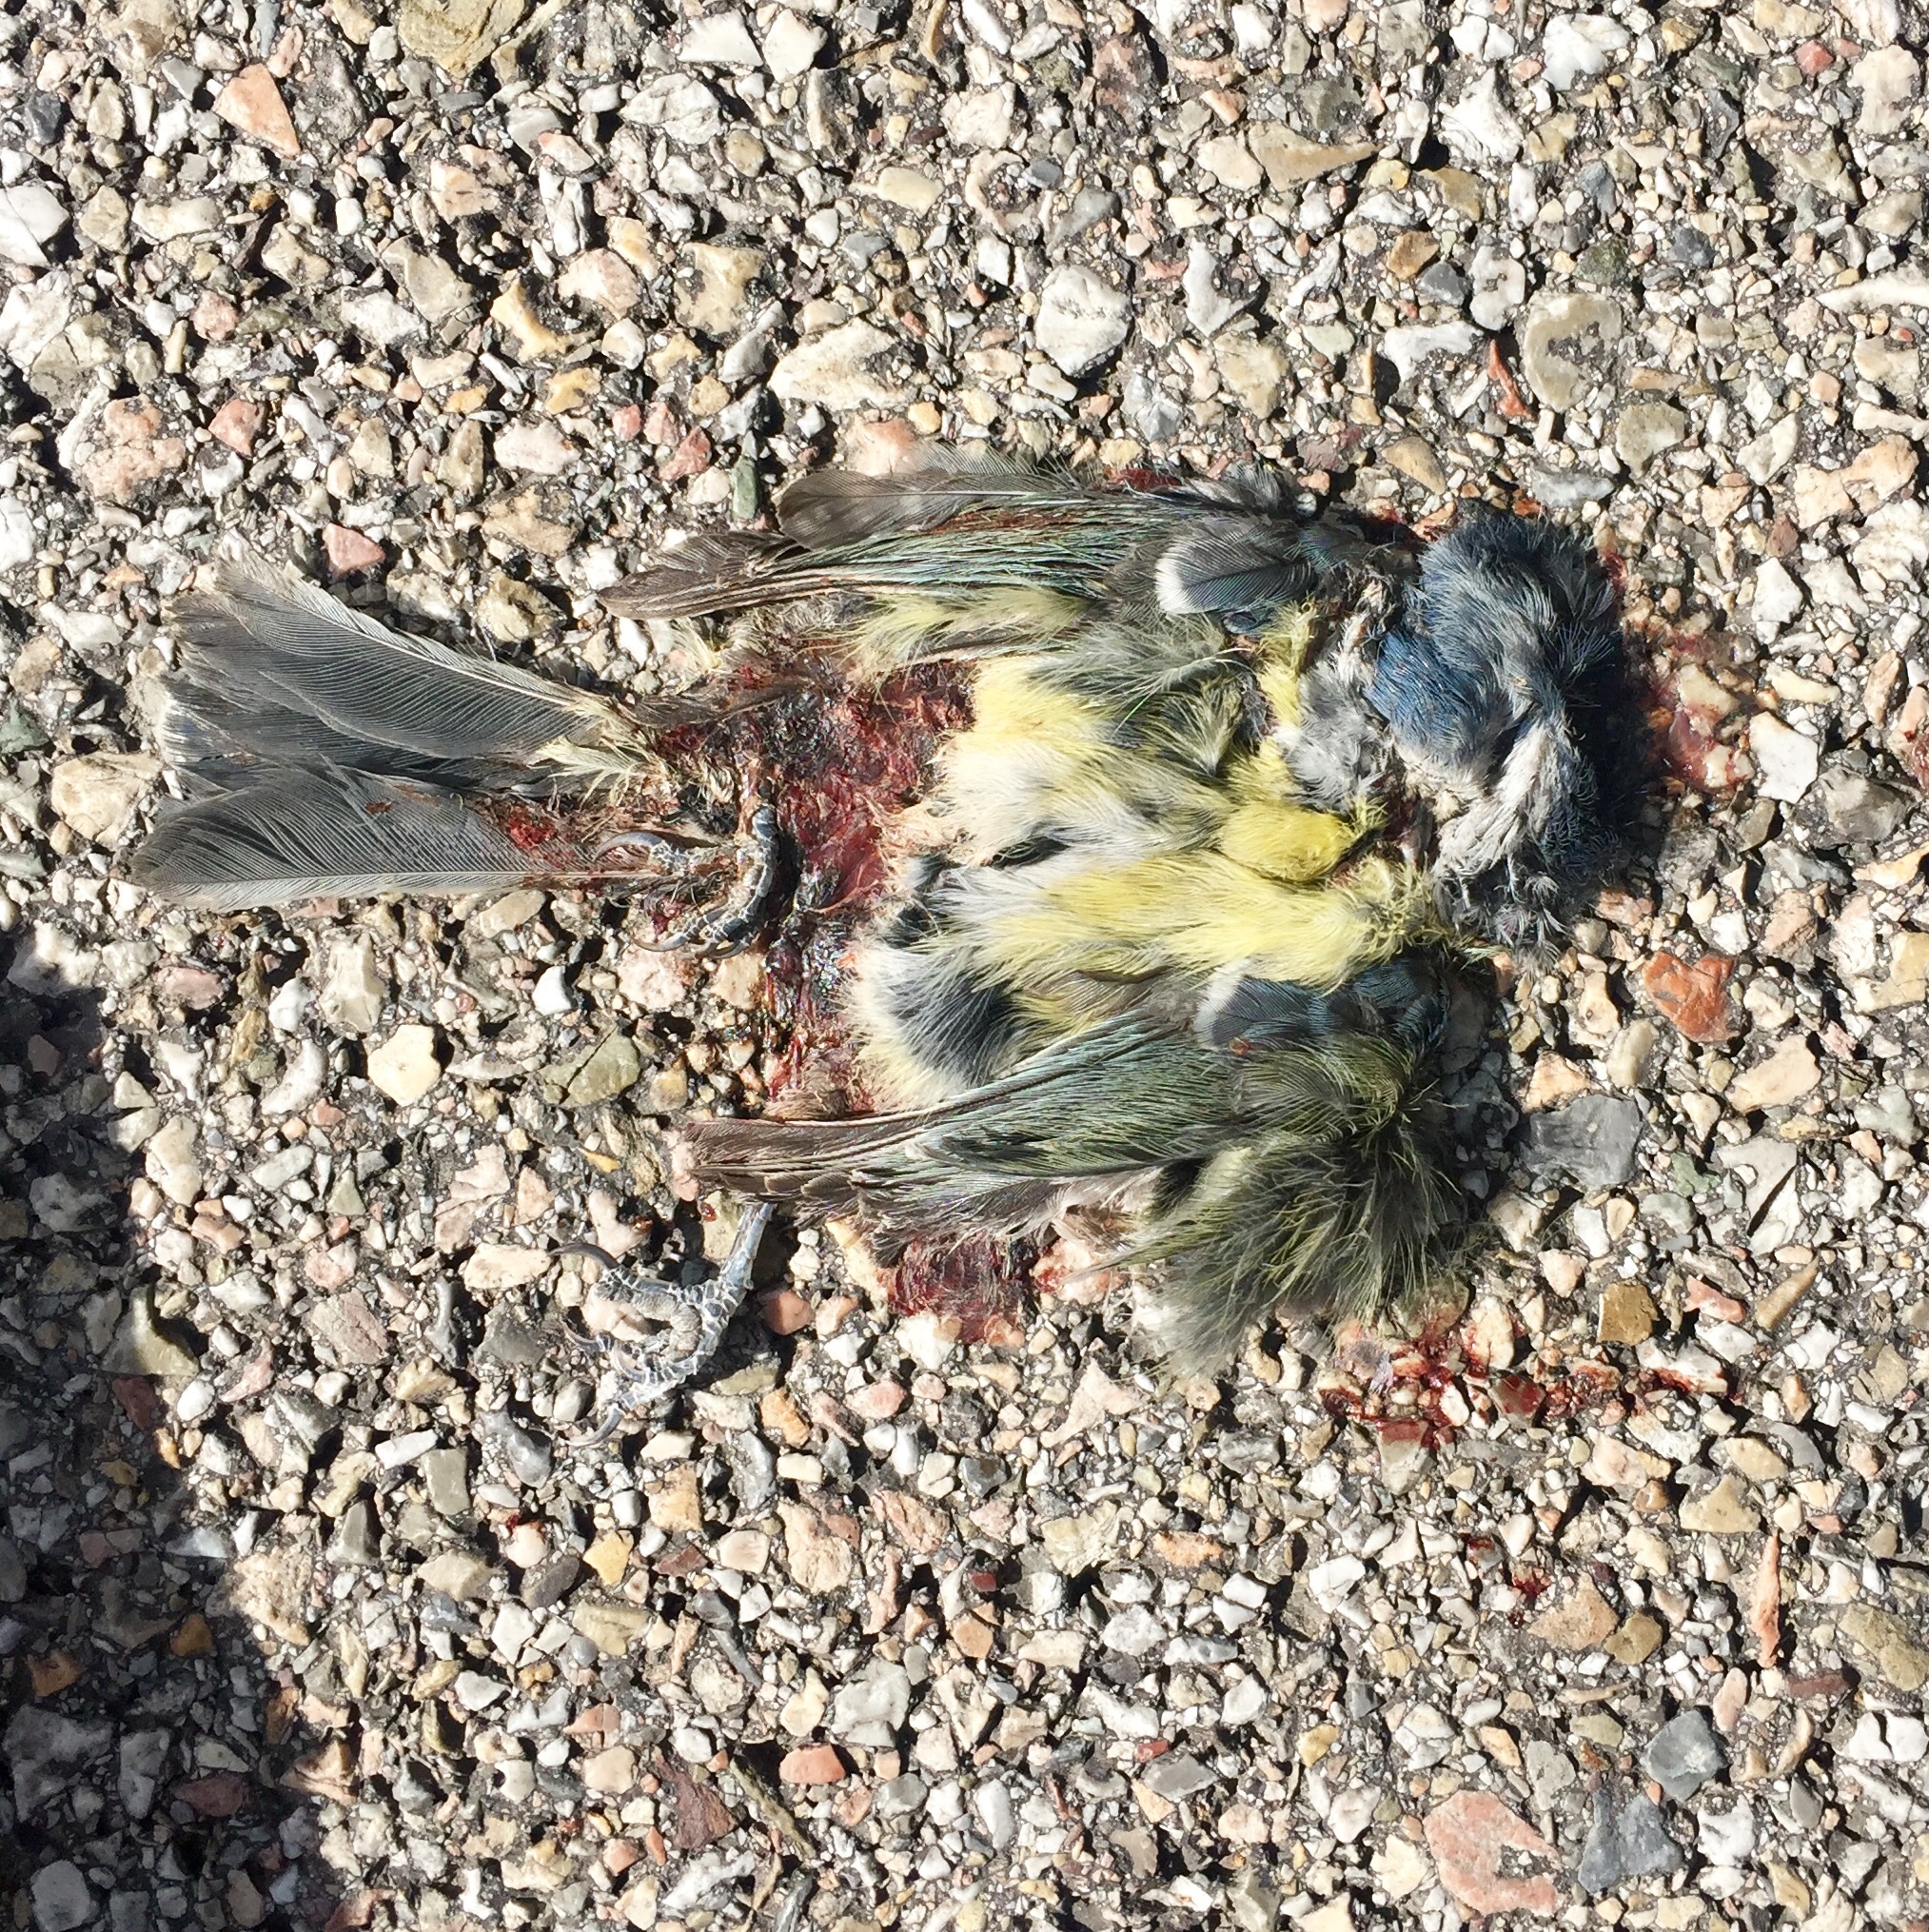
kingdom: Animalia
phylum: Chordata
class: Aves
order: Passeriformes
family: Paridae
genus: Cyanistes
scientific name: Cyanistes caeruleus
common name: Eurasian blue tit
